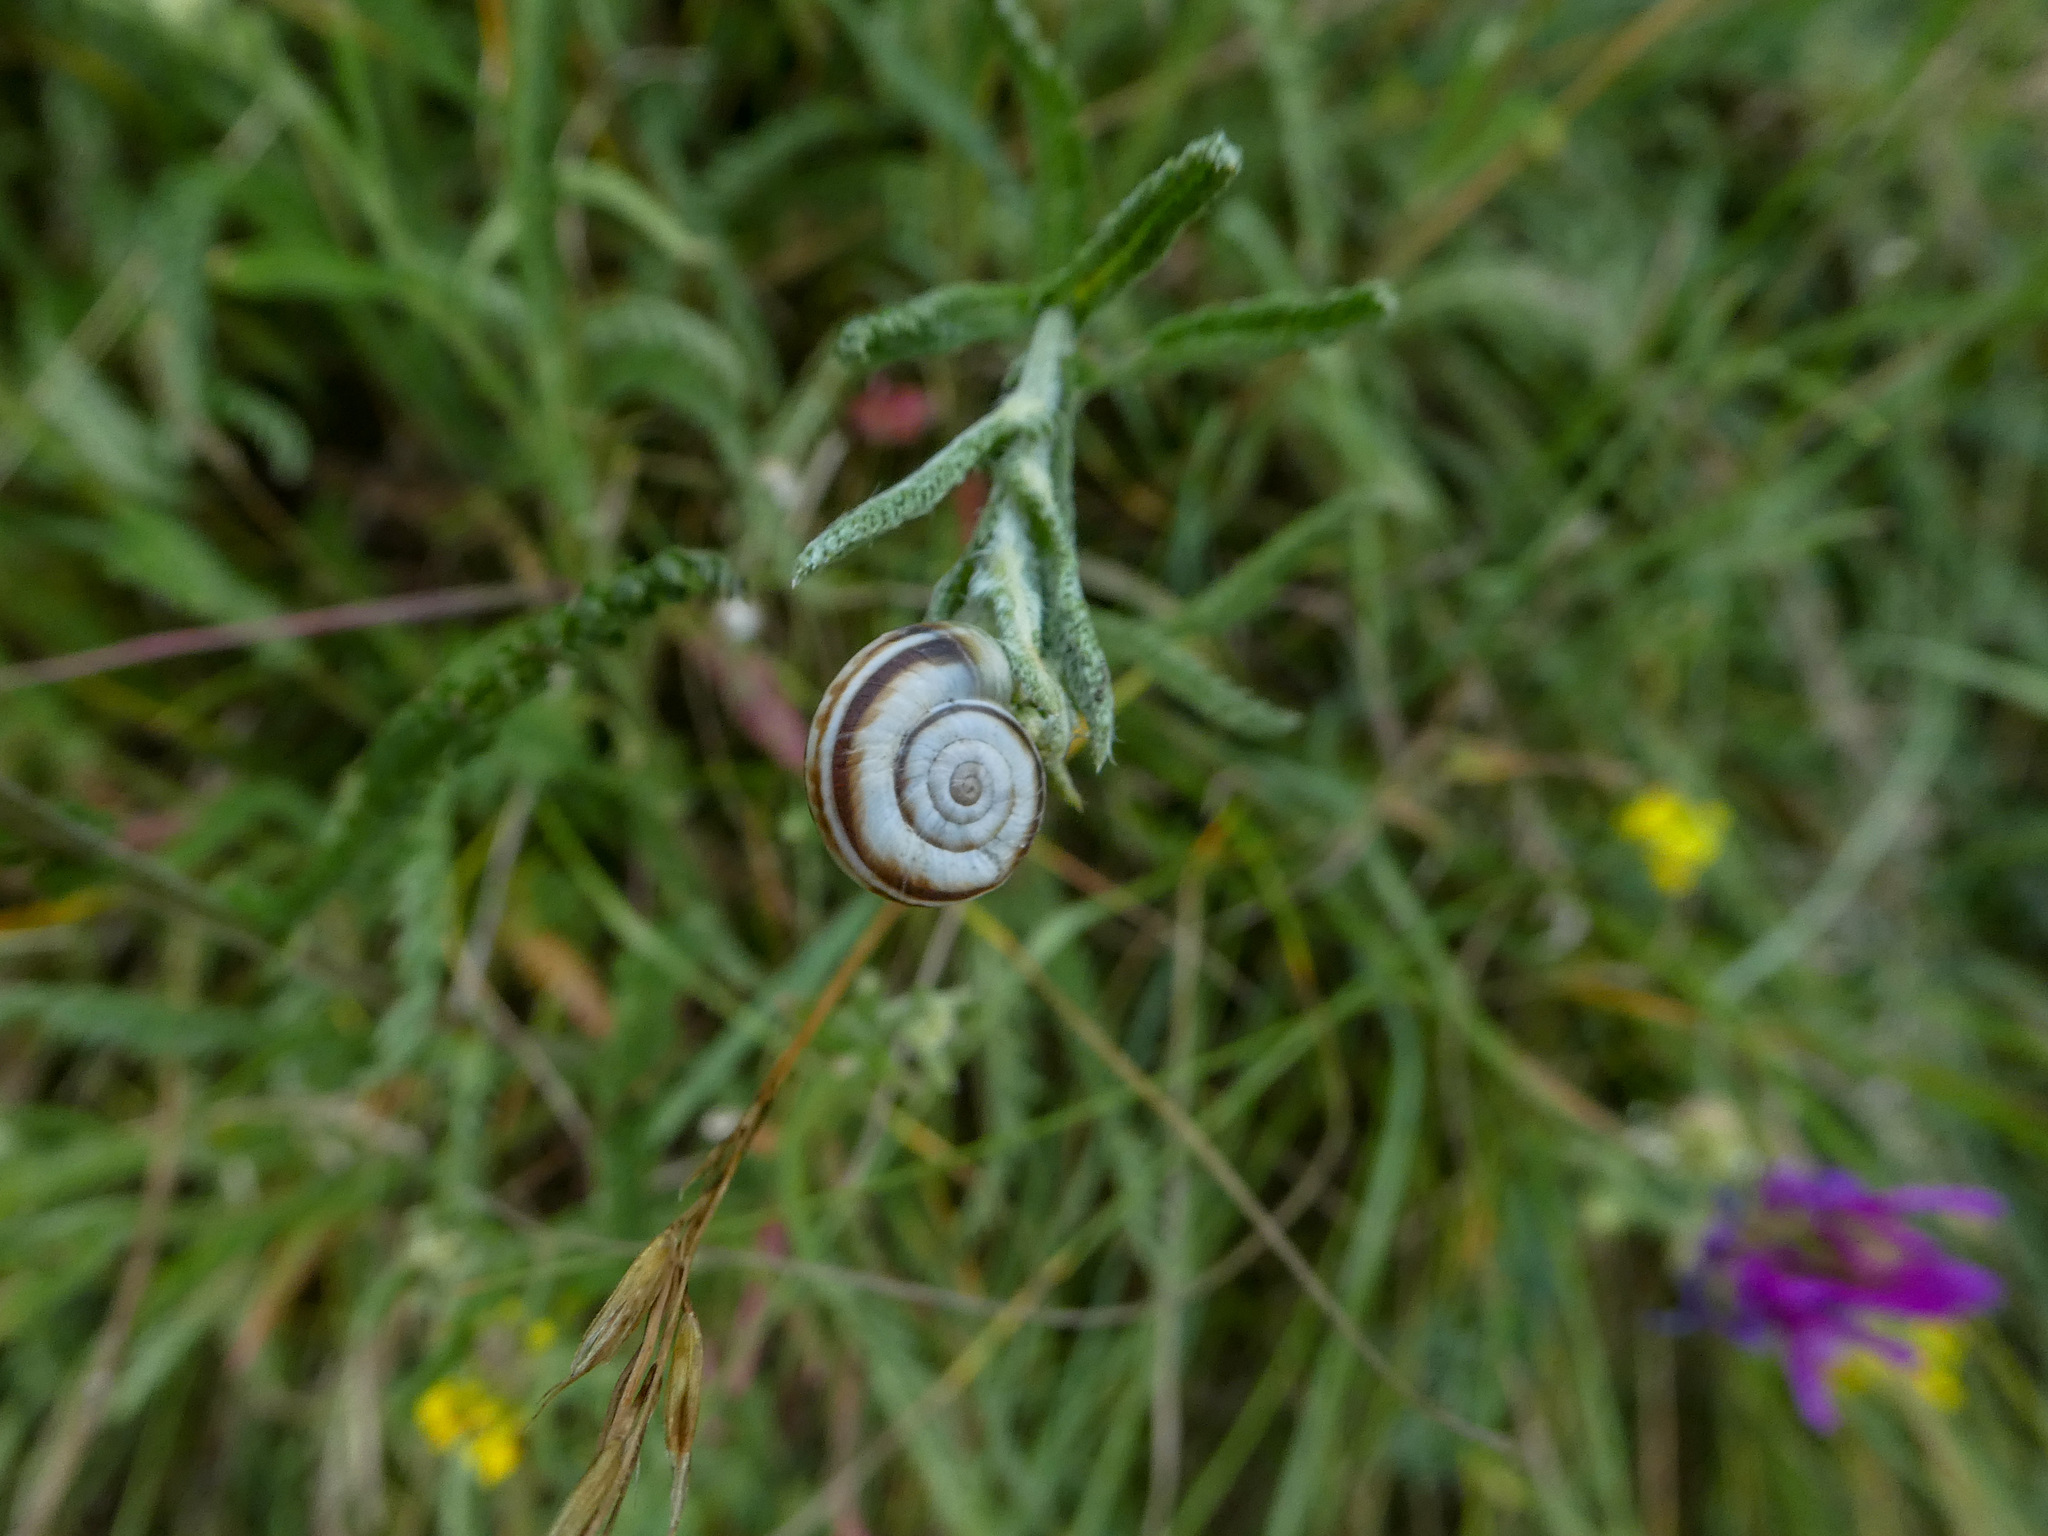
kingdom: Animalia
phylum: Mollusca
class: Gastropoda
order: Stylommatophora
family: Geomitridae
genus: Xerolenta
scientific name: Xerolenta obvia
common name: White heath snail
